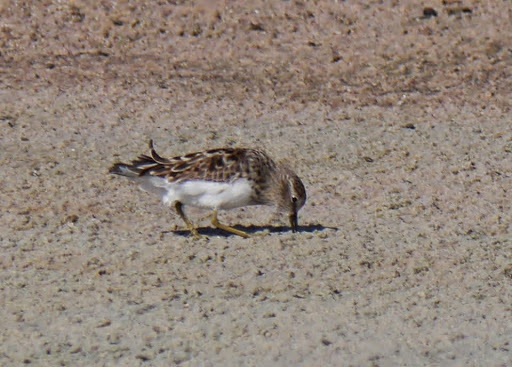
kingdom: Animalia
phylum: Chordata
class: Aves
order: Charadriiformes
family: Scolopacidae
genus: Calidris
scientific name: Calidris minutilla
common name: Least sandpiper
